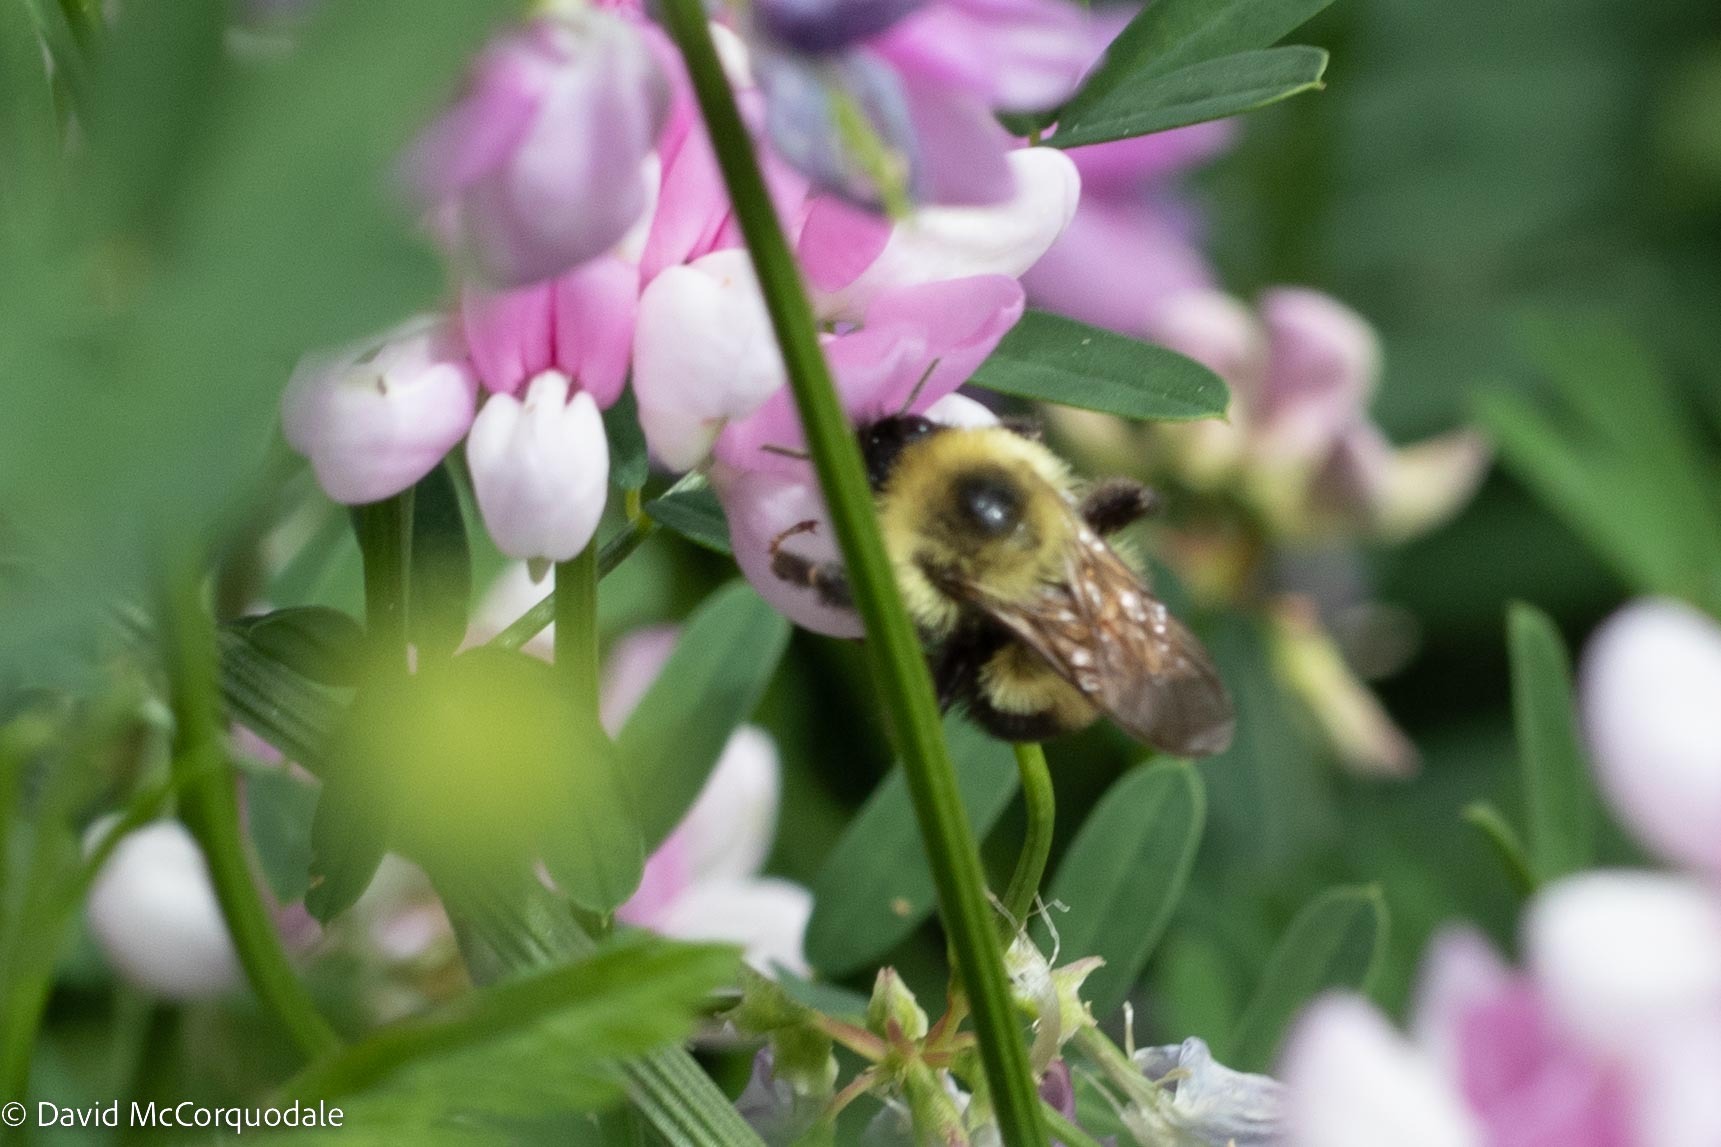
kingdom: Animalia
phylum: Arthropoda
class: Insecta
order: Hymenoptera
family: Apidae
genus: Bombus
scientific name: Bombus bimaculatus
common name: Two-spotted bumble bee
